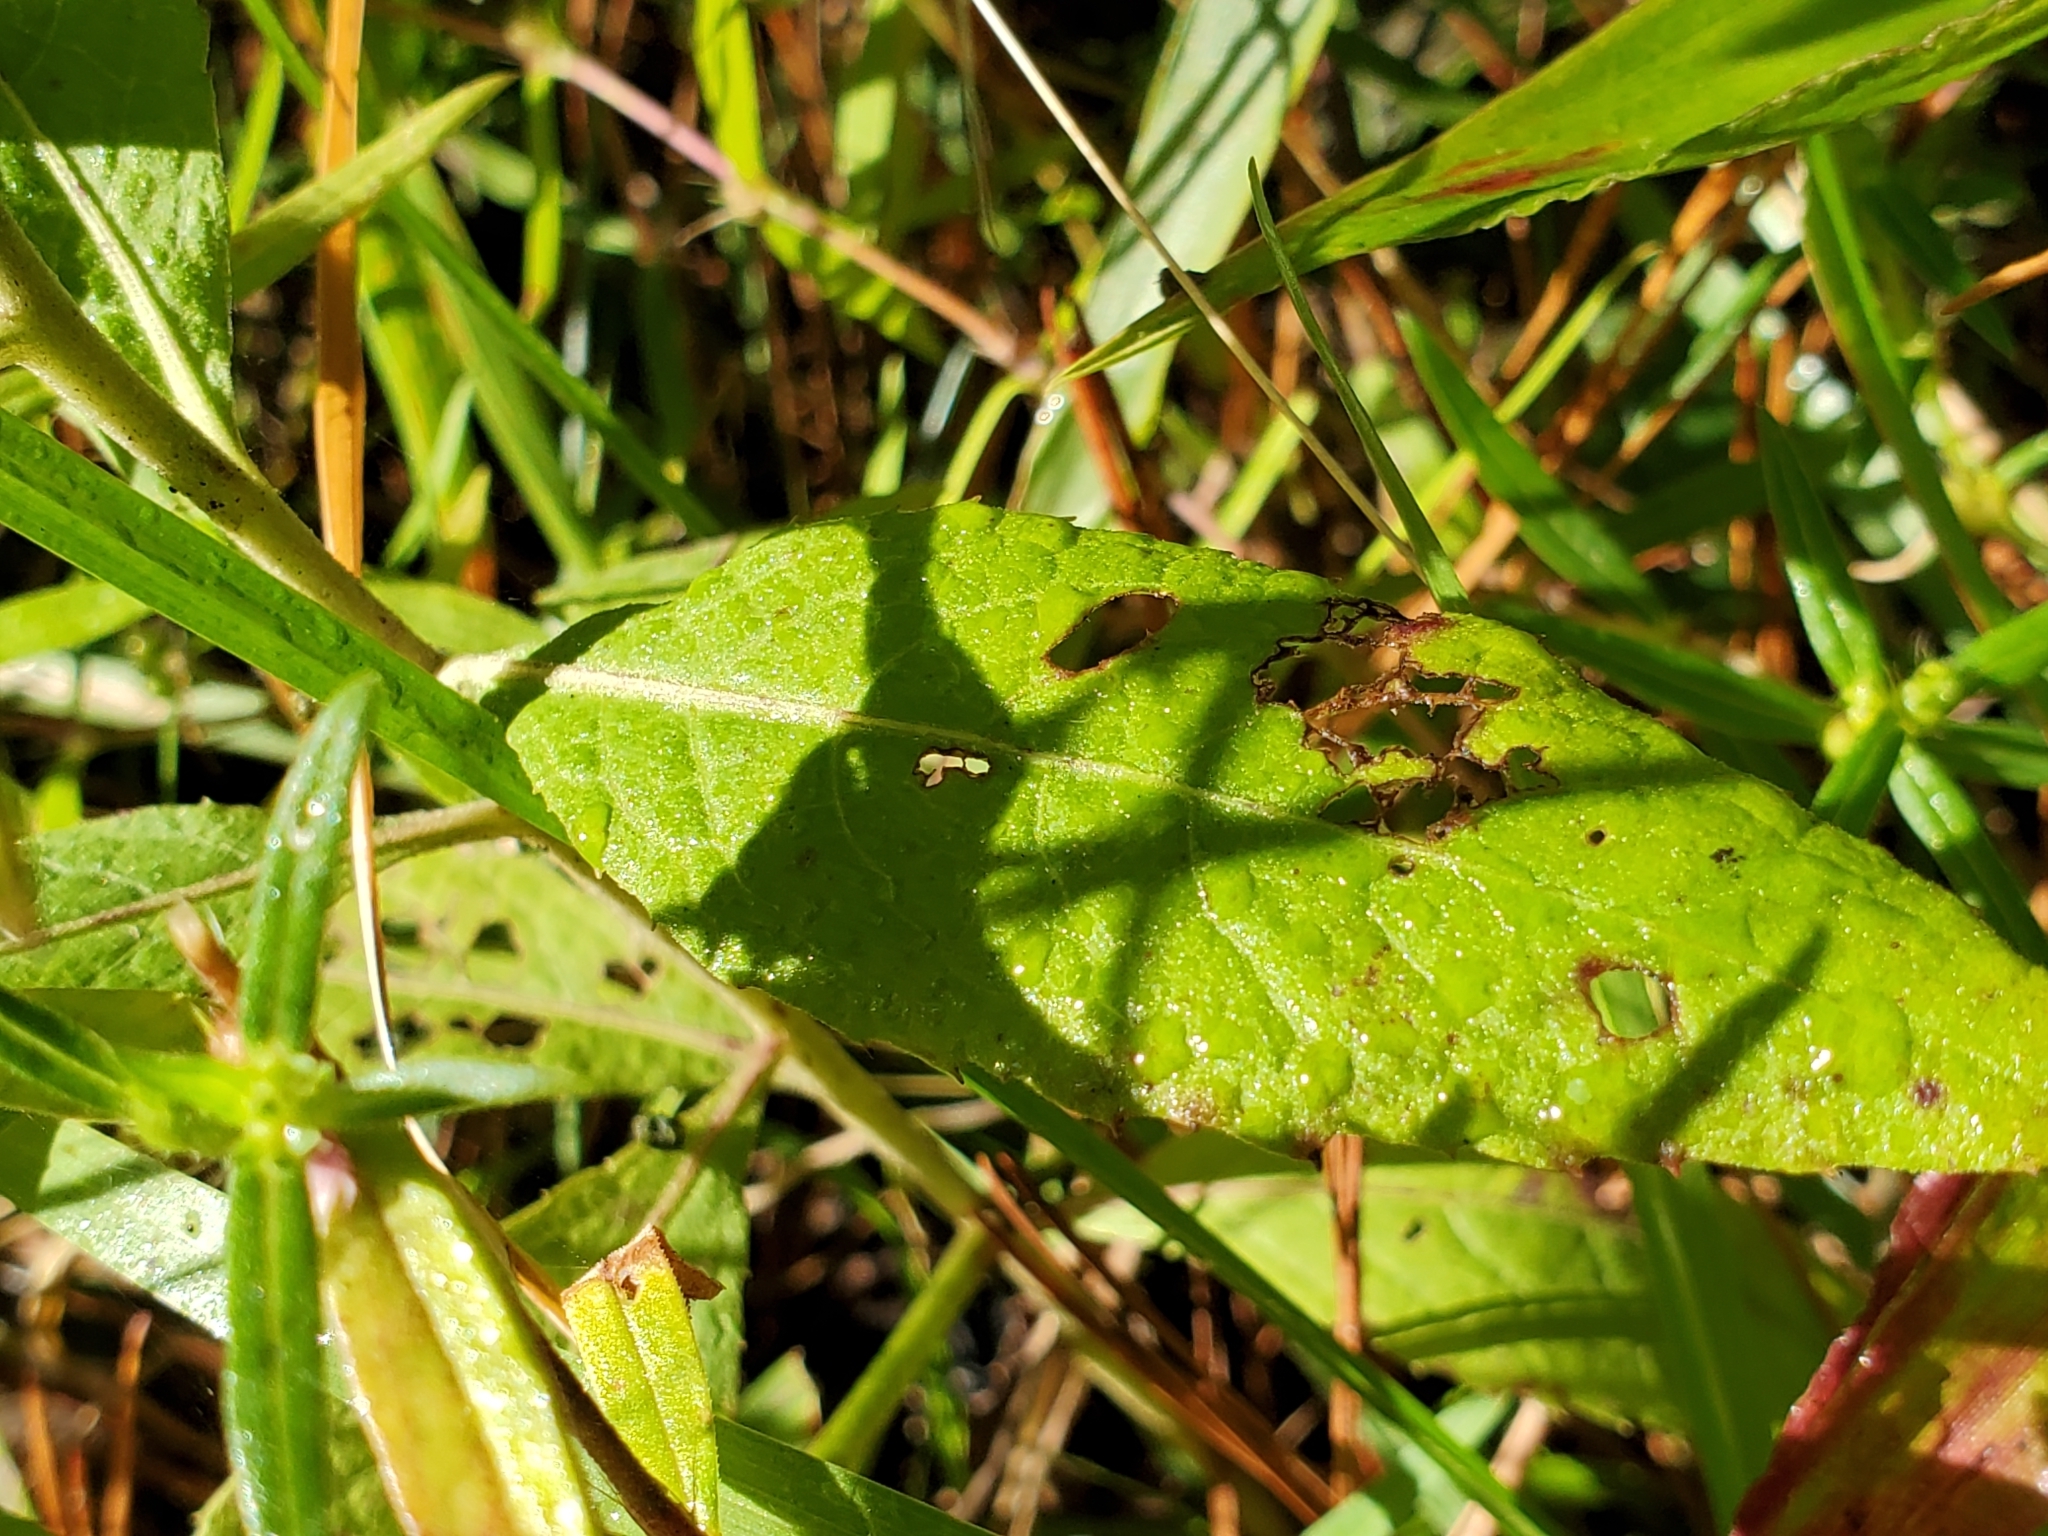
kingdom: Plantae
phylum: Tracheophyta
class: Magnoliopsida
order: Asterales
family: Asteraceae
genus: Pluchea
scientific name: Pluchea camphorata
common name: Camphor pluchea
